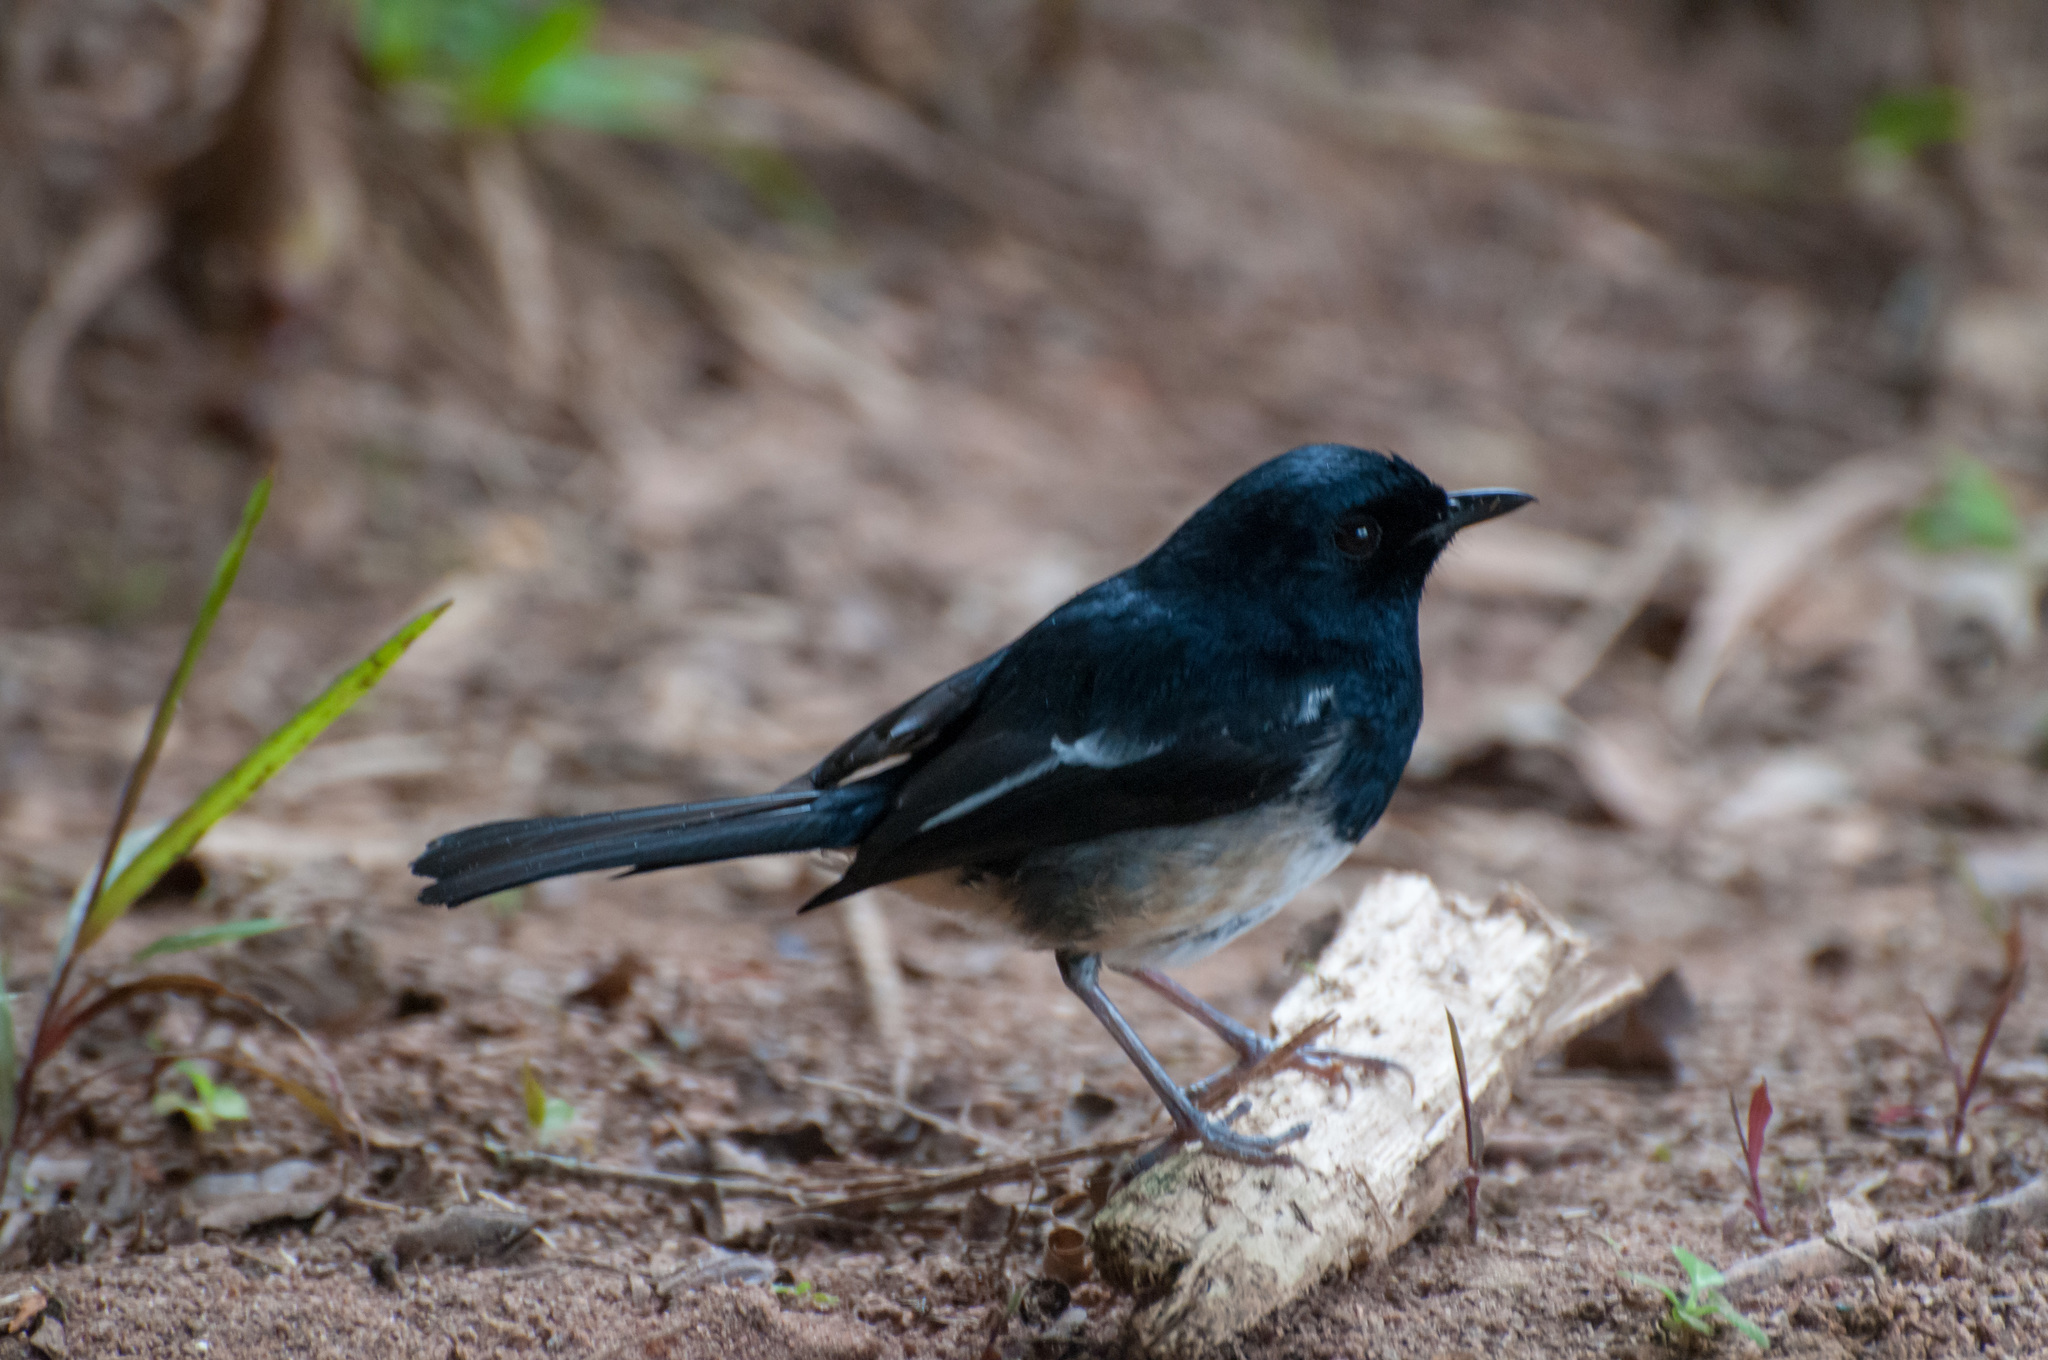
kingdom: Animalia
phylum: Chordata
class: Aves
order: Passeriformes
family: Muscicapidae
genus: Copsychus
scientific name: Copsychus albospecularis
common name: Madagascar magpie-robin
